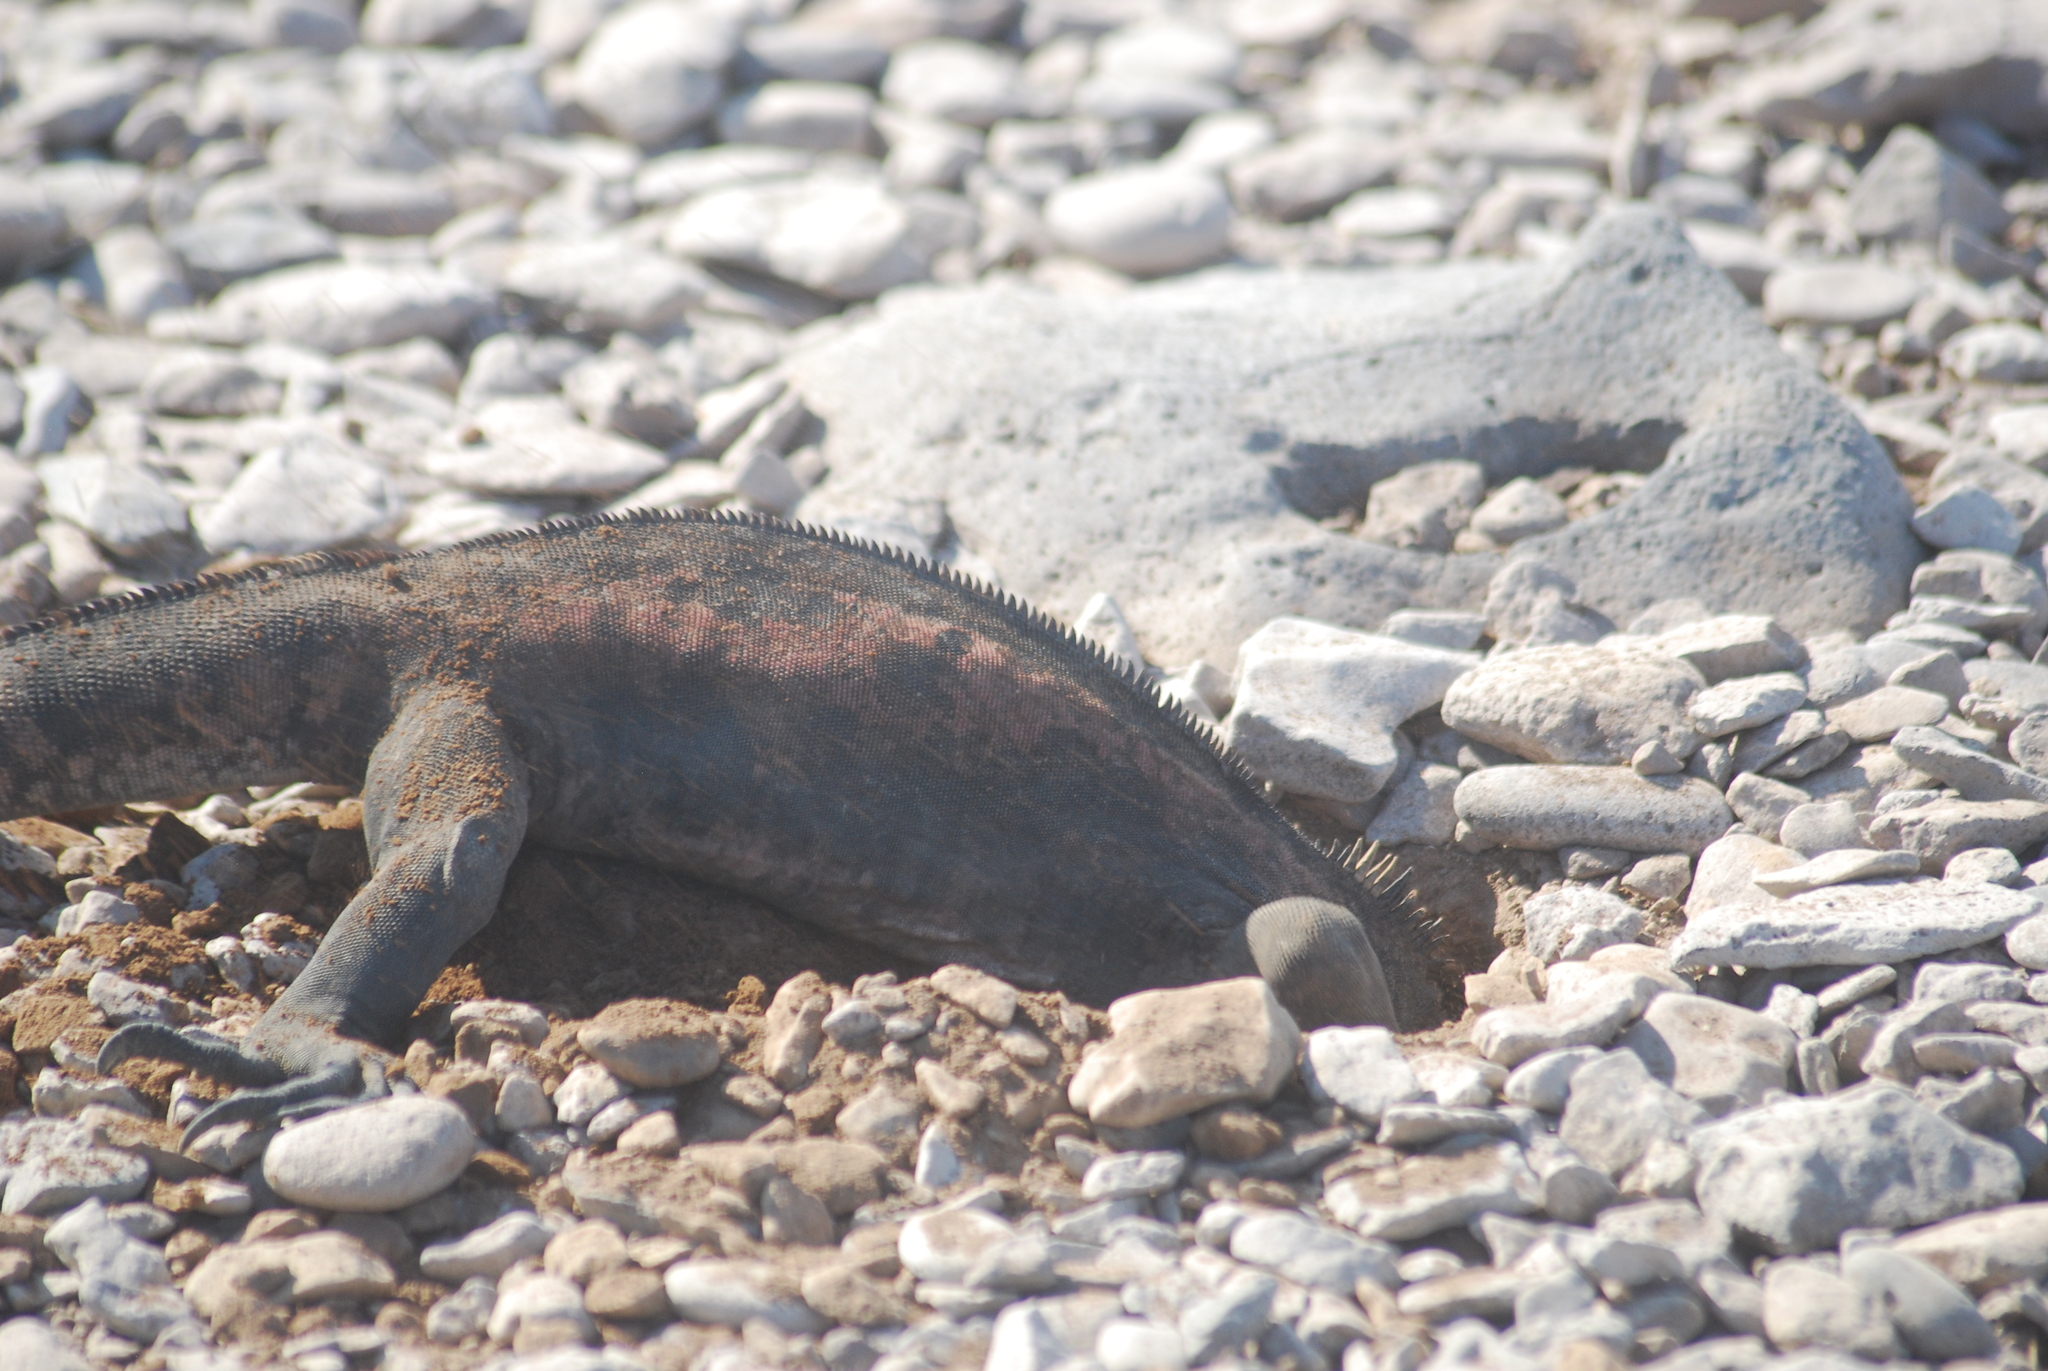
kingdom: Animalia
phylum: Chordata
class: Squamata
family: Iguanidae
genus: Amblyrhynchus
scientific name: Amblyrhynchus cristatus
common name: Marine iguana
